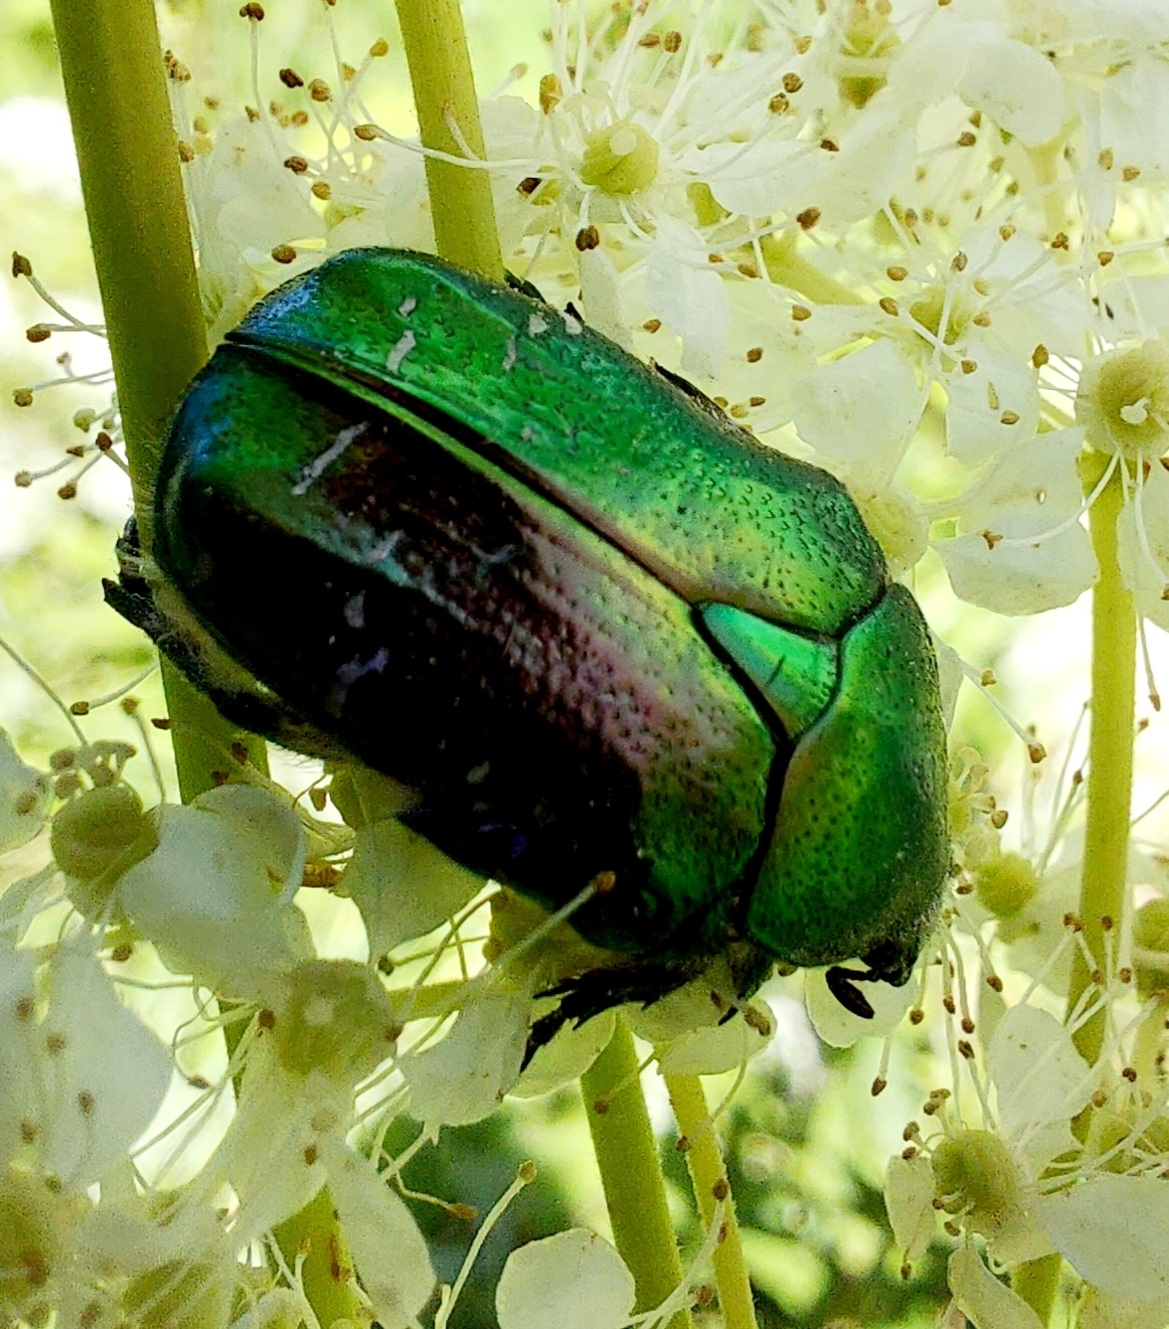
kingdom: Animalia
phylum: Arthropoda
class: Insecta
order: Coleoptera
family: Scarabaeidae
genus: Cetonia
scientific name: Cetonia aurata
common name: Rose chafer
